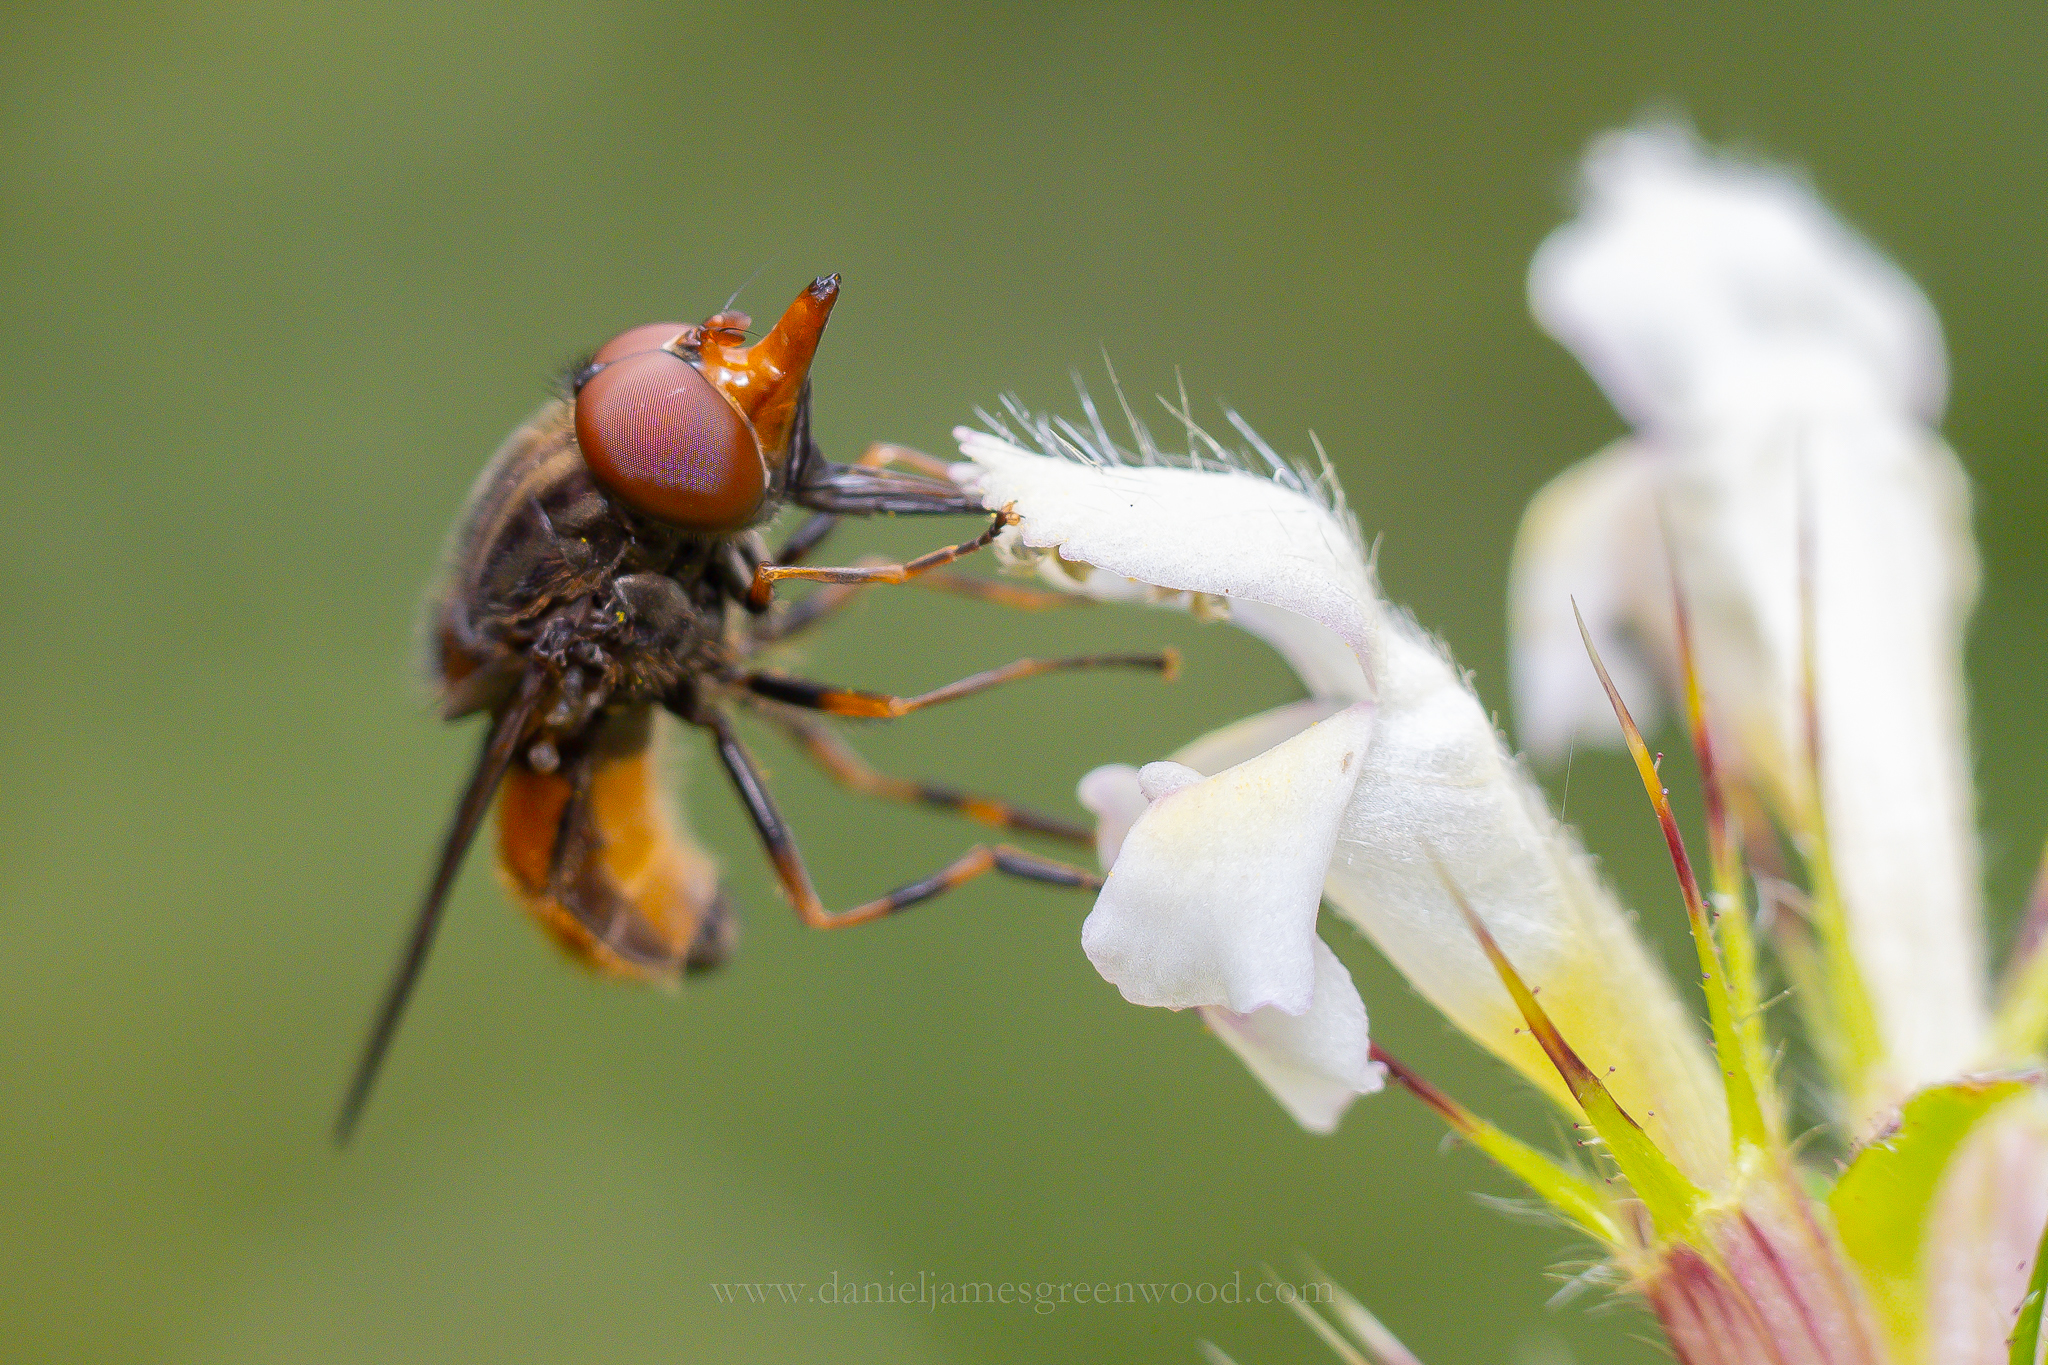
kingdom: Animalia
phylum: Arthropoda
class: Insecta
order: Diptera
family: Syrphidae
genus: Rhingia
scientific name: Rhingia campestris
